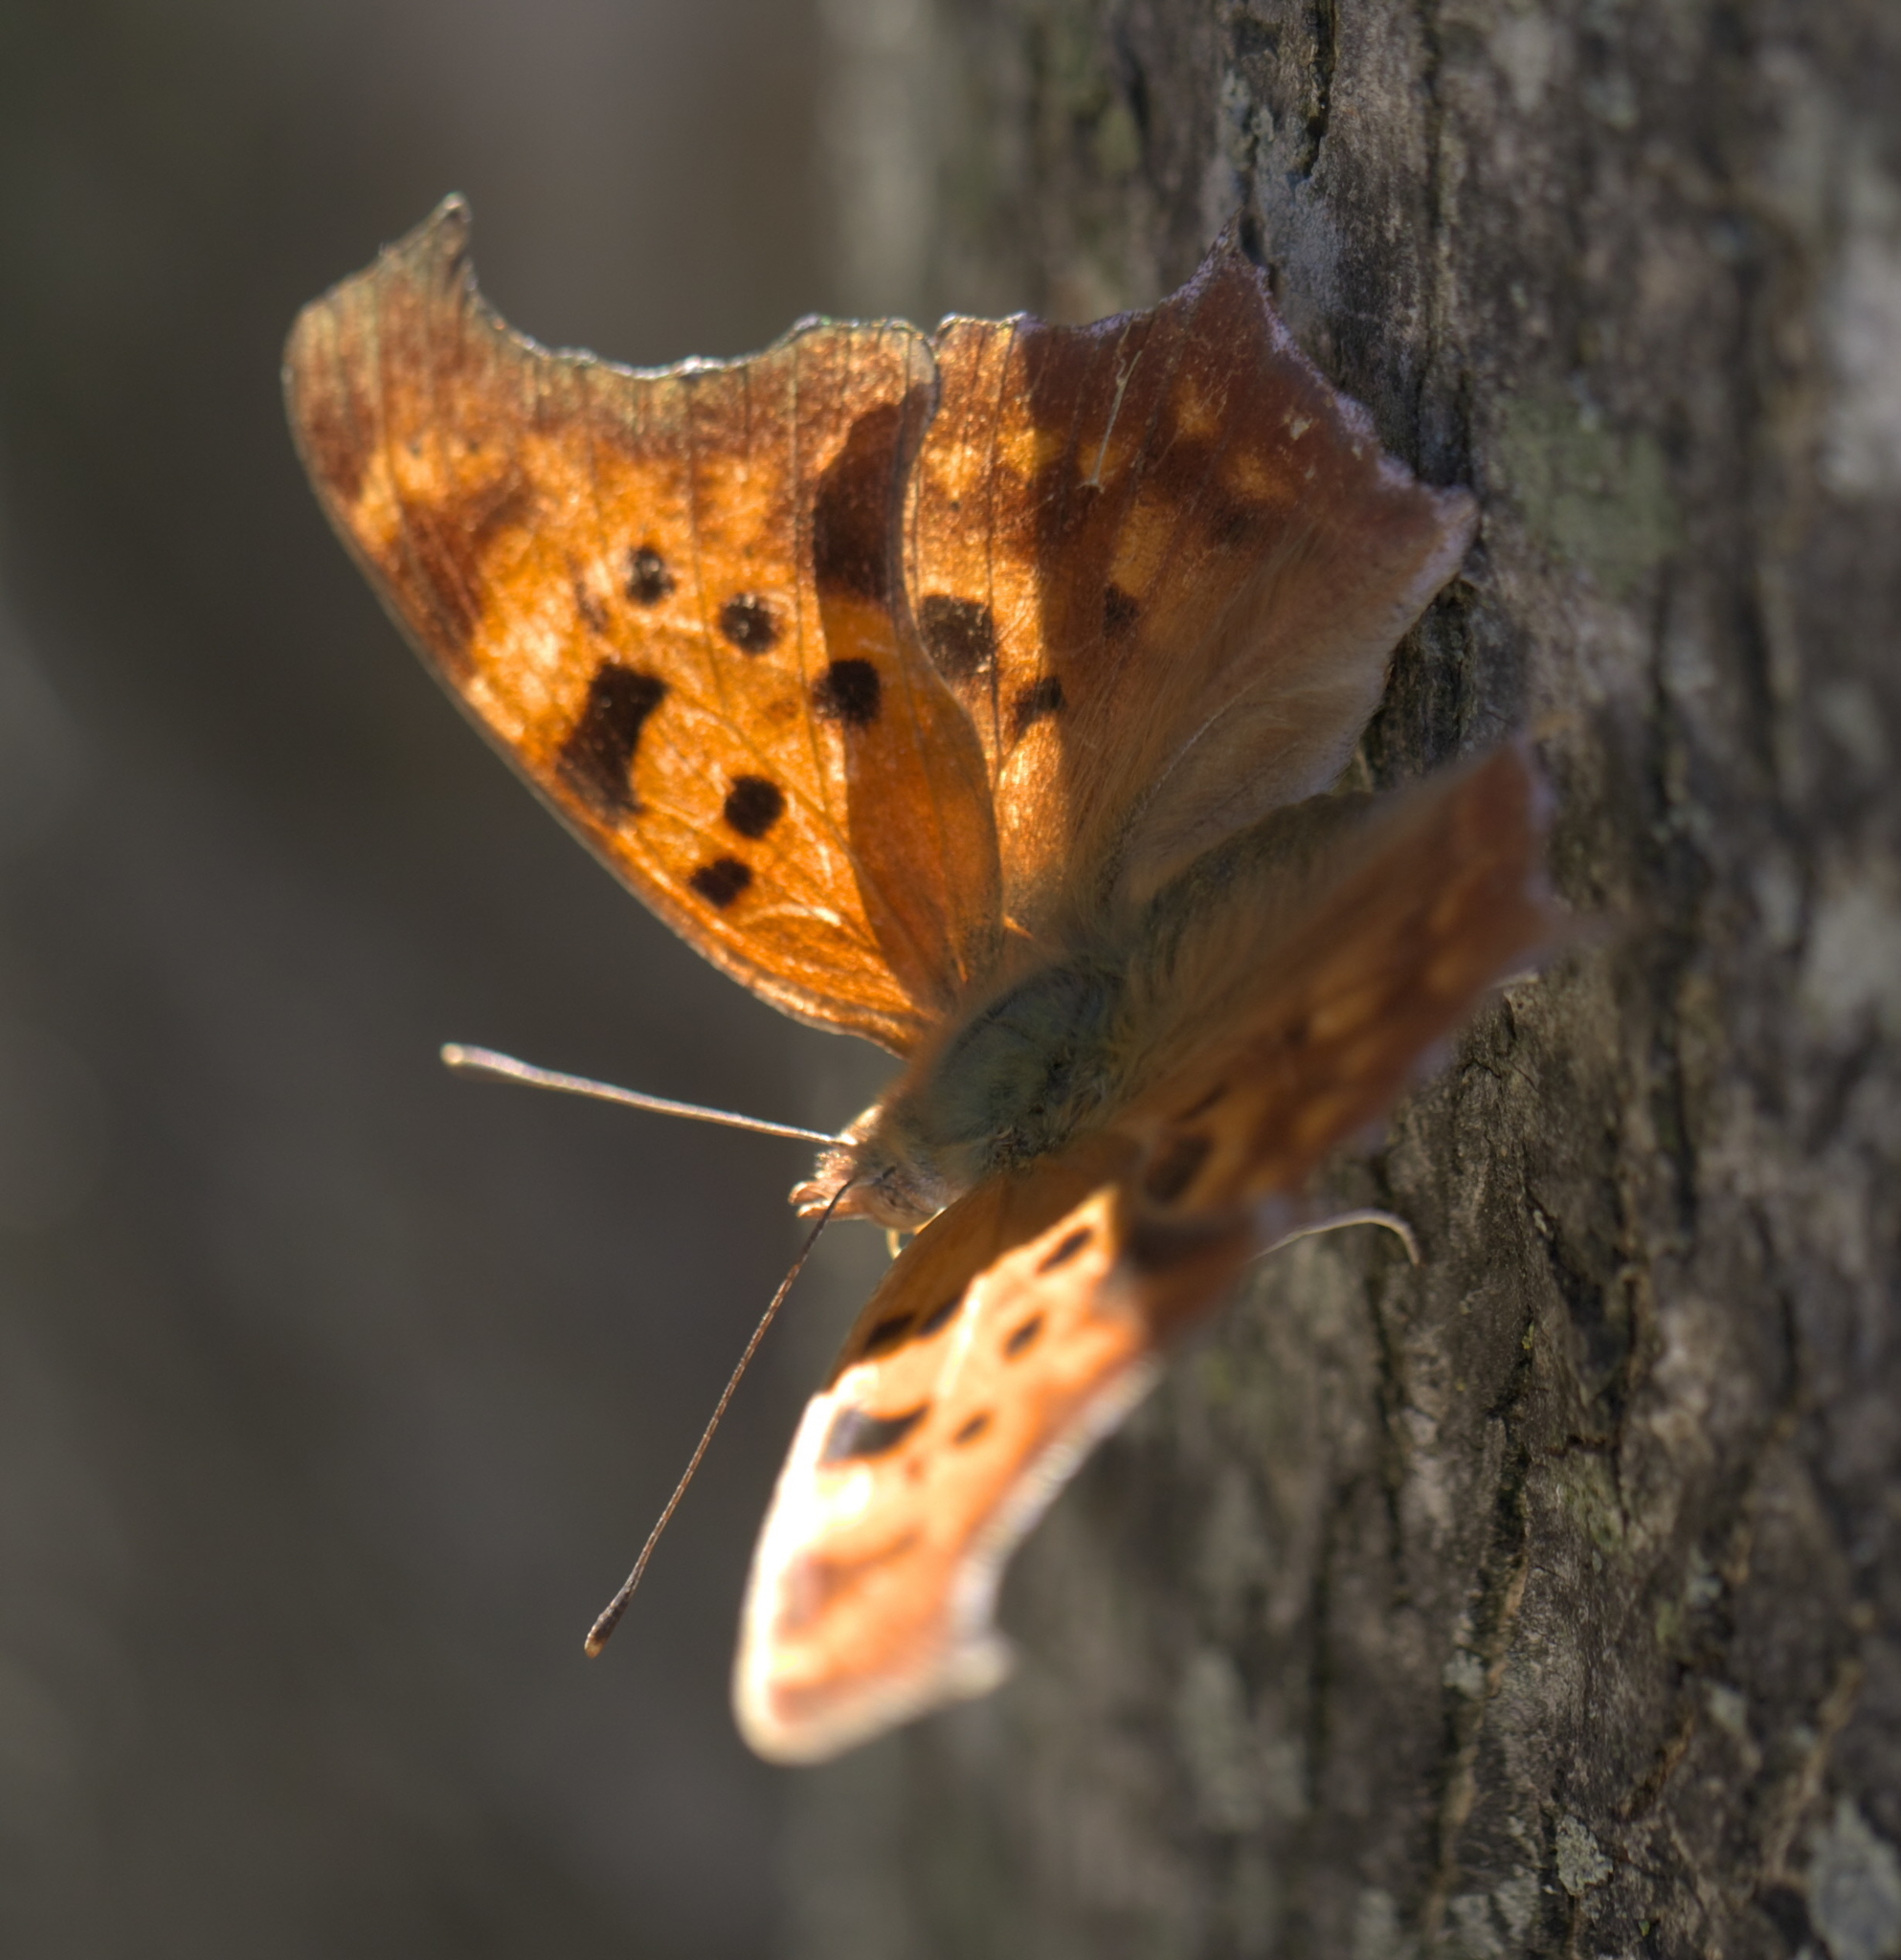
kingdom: Animalia
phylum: Arthropoda
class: Insecta
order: Lepidoptera
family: Nymphalidae
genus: Polygonia
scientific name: Polygonia interrogationis
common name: Question mark
